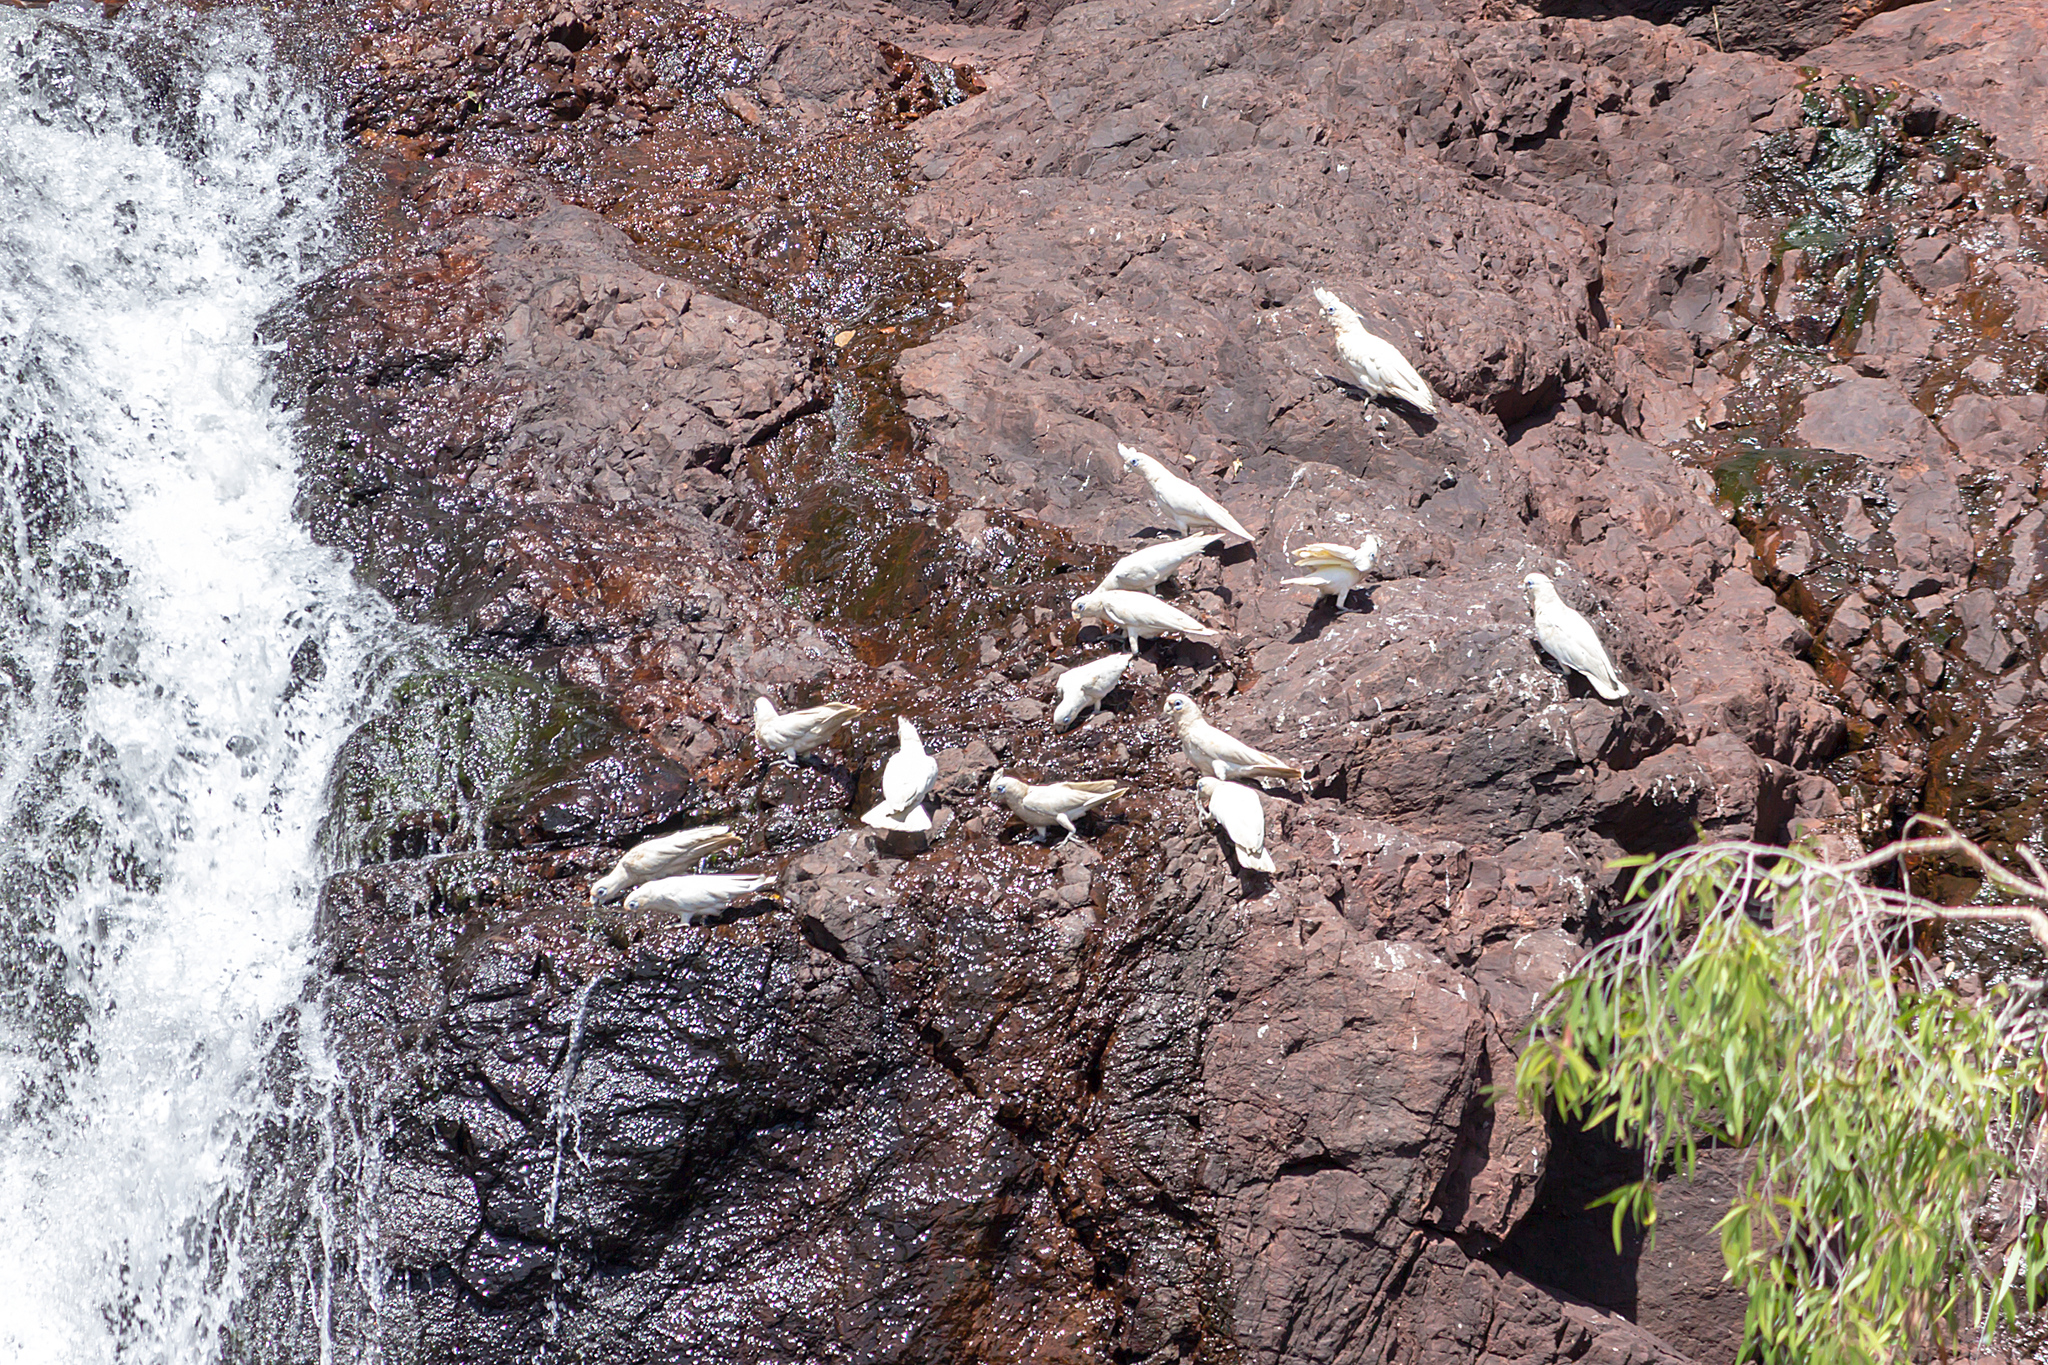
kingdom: Animalia
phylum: Chordata
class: Aves
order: Psittaciformes
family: Psittacidae
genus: Cacatua
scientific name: Cacatua sanguinea
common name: Little corella
